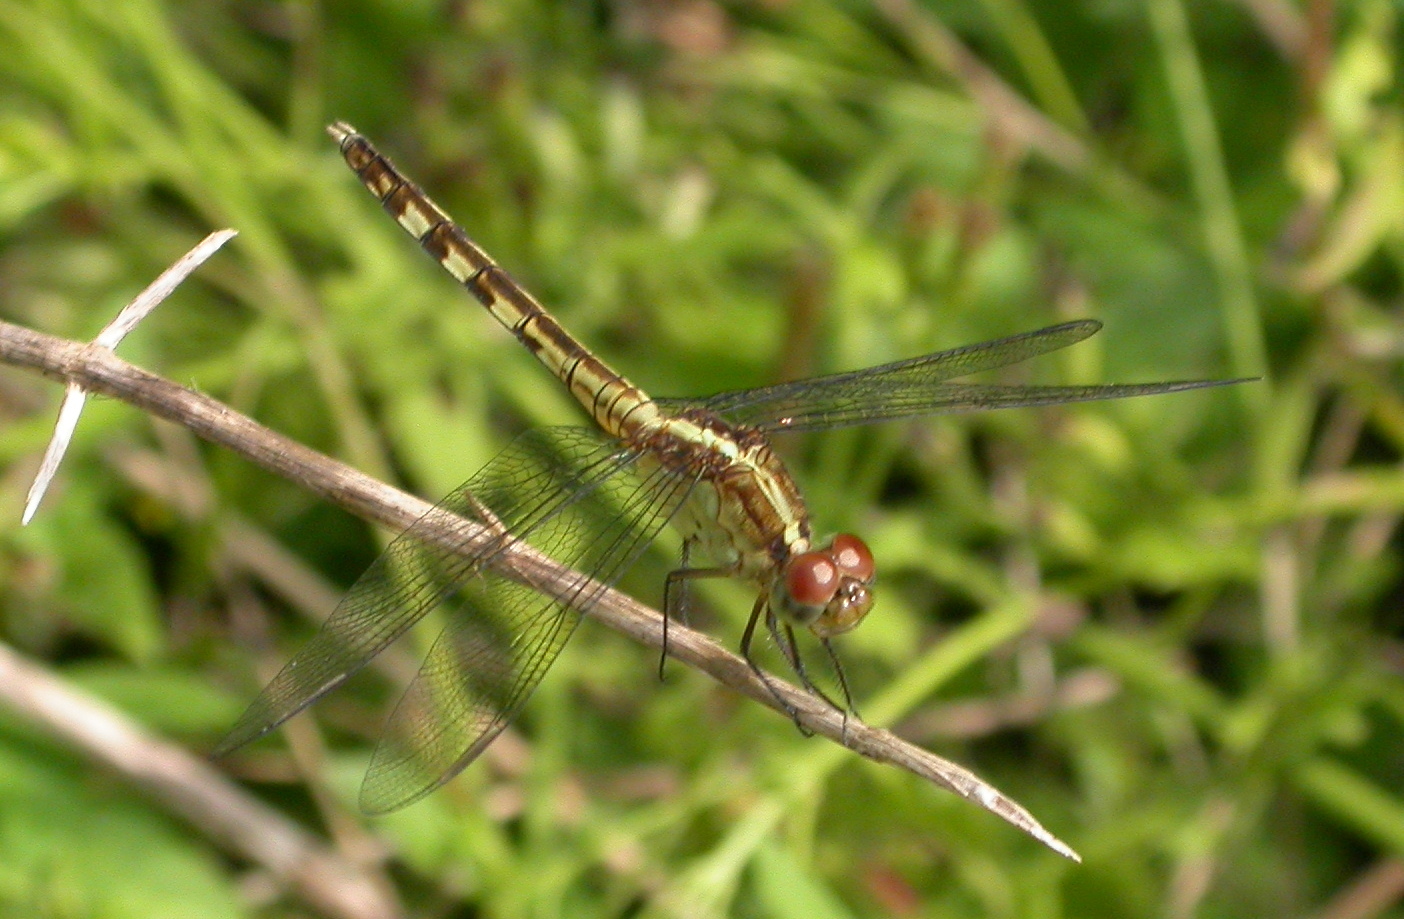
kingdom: Animalia
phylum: Arthropoda
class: Insecta
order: Odonata
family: Libellulidae
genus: Erythrodiplax
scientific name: Erythrodiplax umbrata
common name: Band-winged dragonlet
